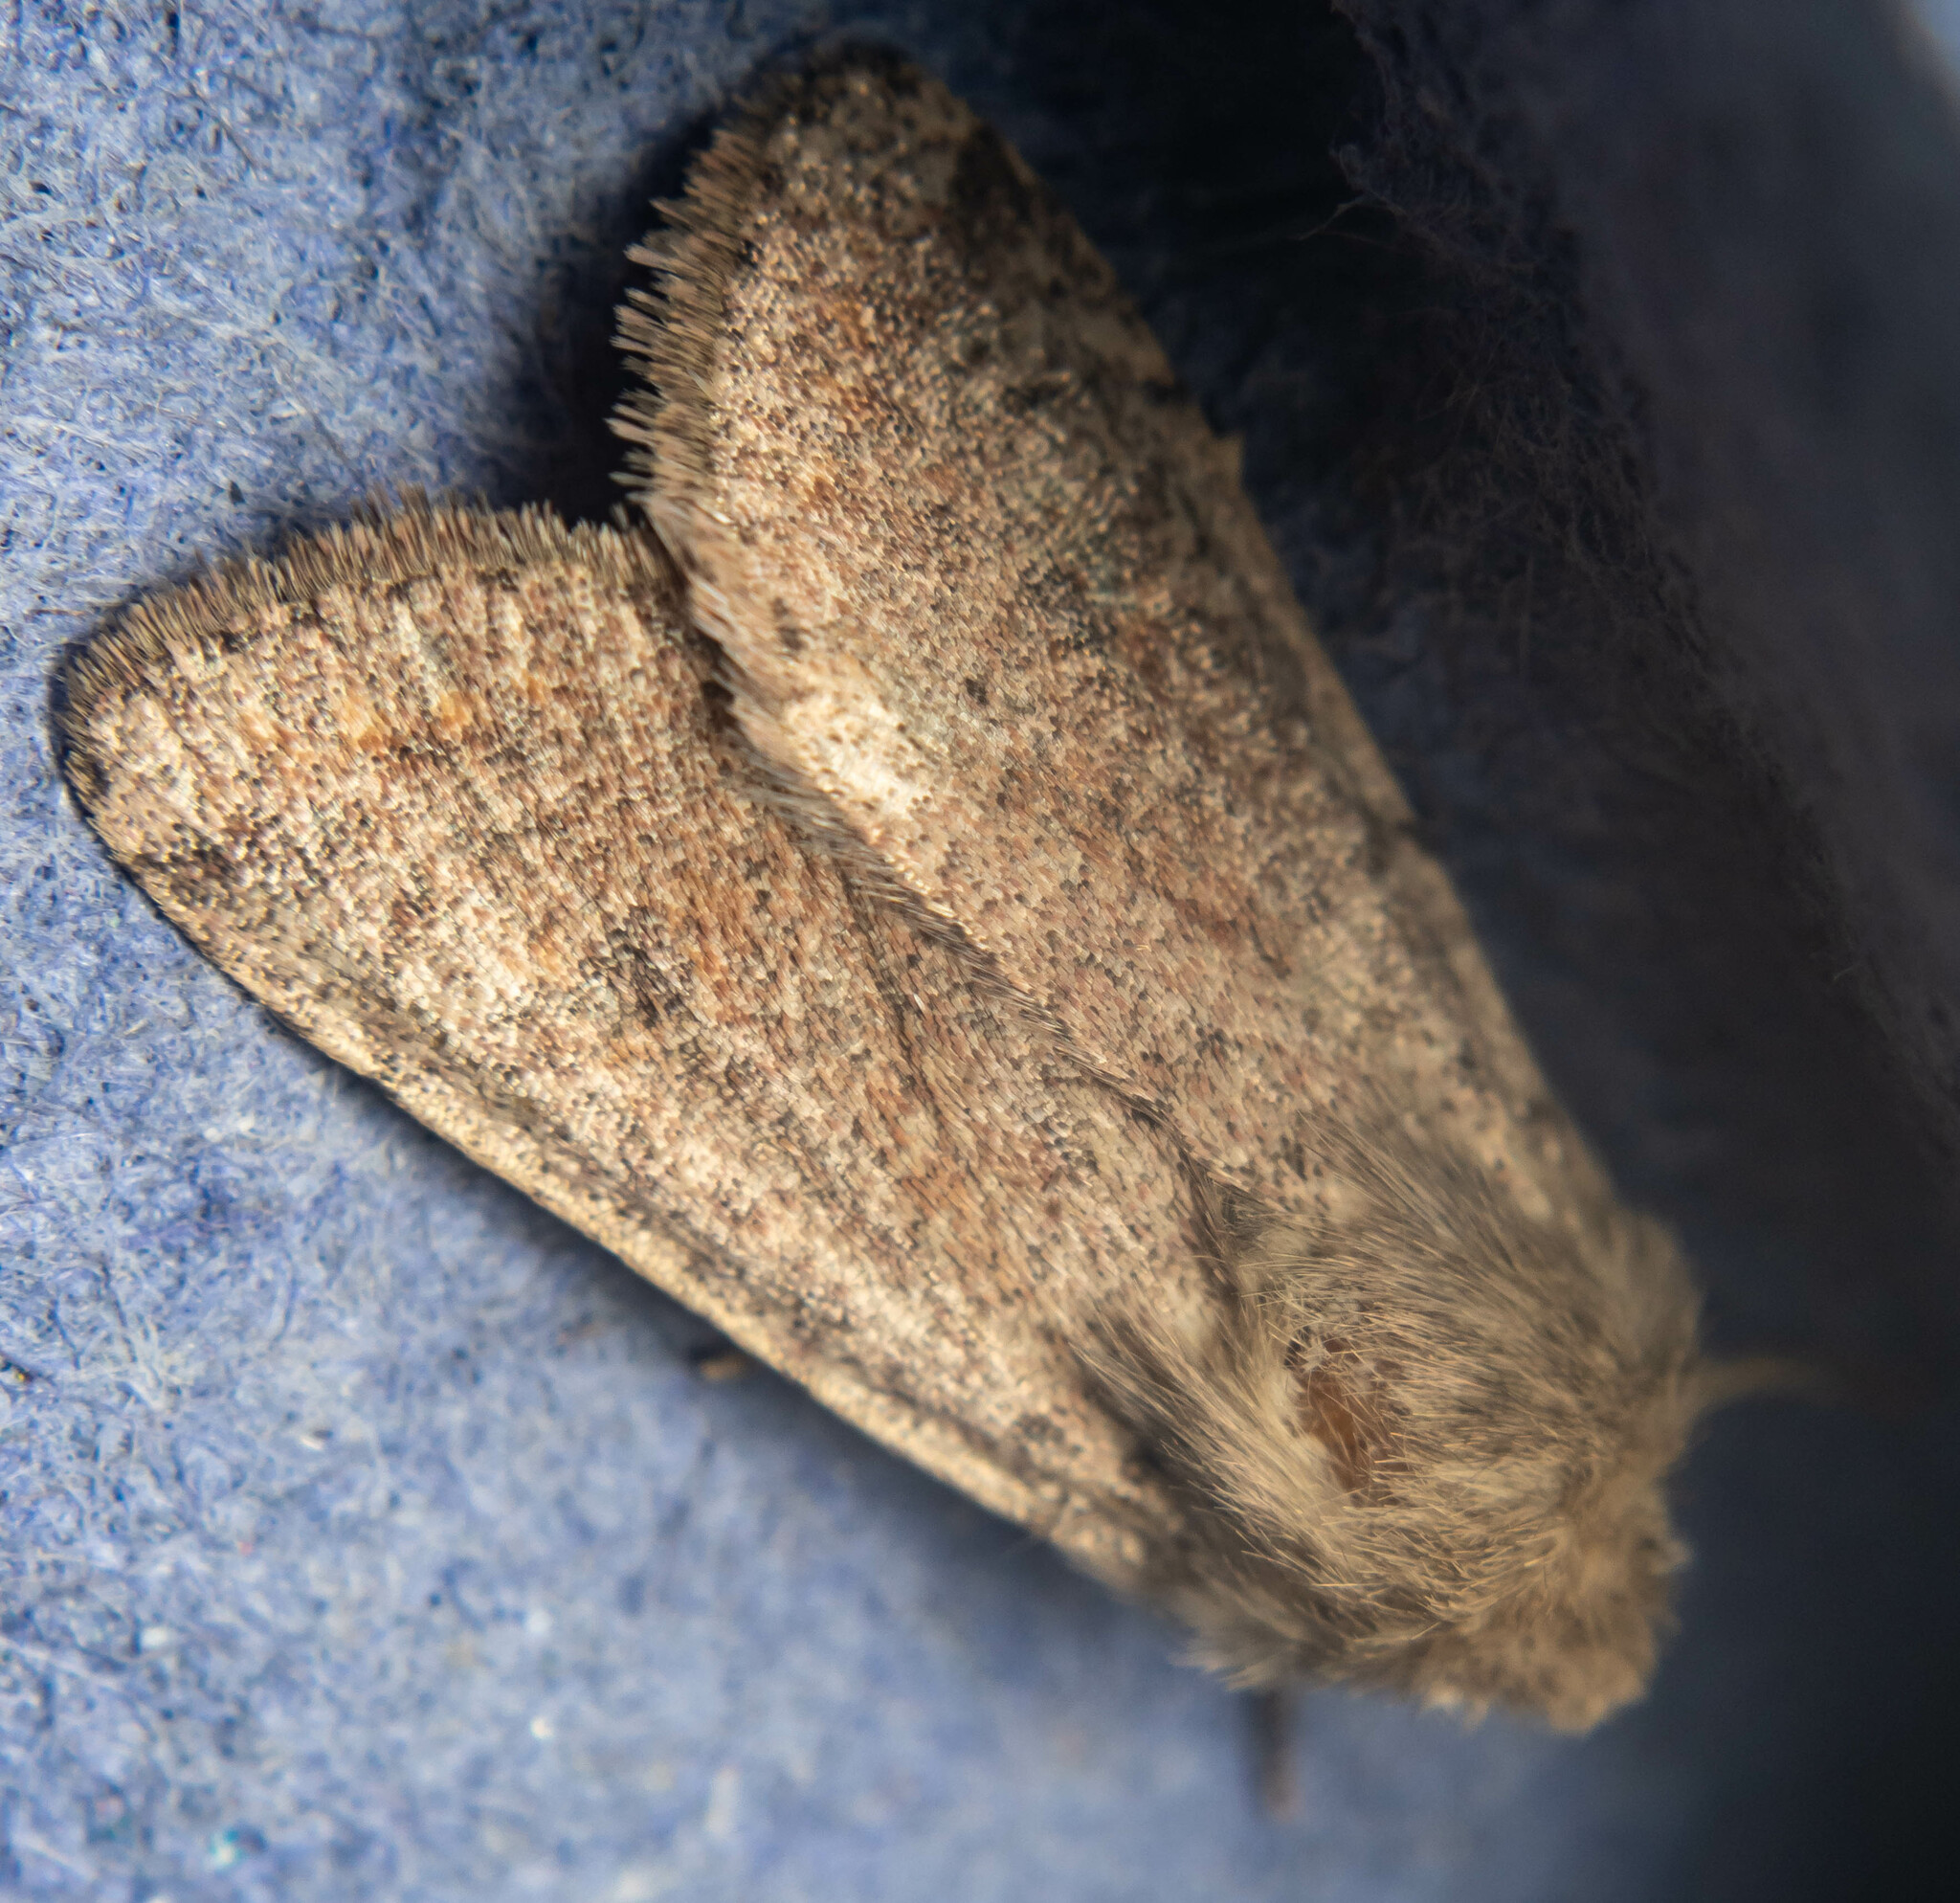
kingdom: Animalia
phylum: Arthropoda
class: Insecta
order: Lepidoptera
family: Noctuidae
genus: Orthosia
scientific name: Orthosia cruda
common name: Small quaker
